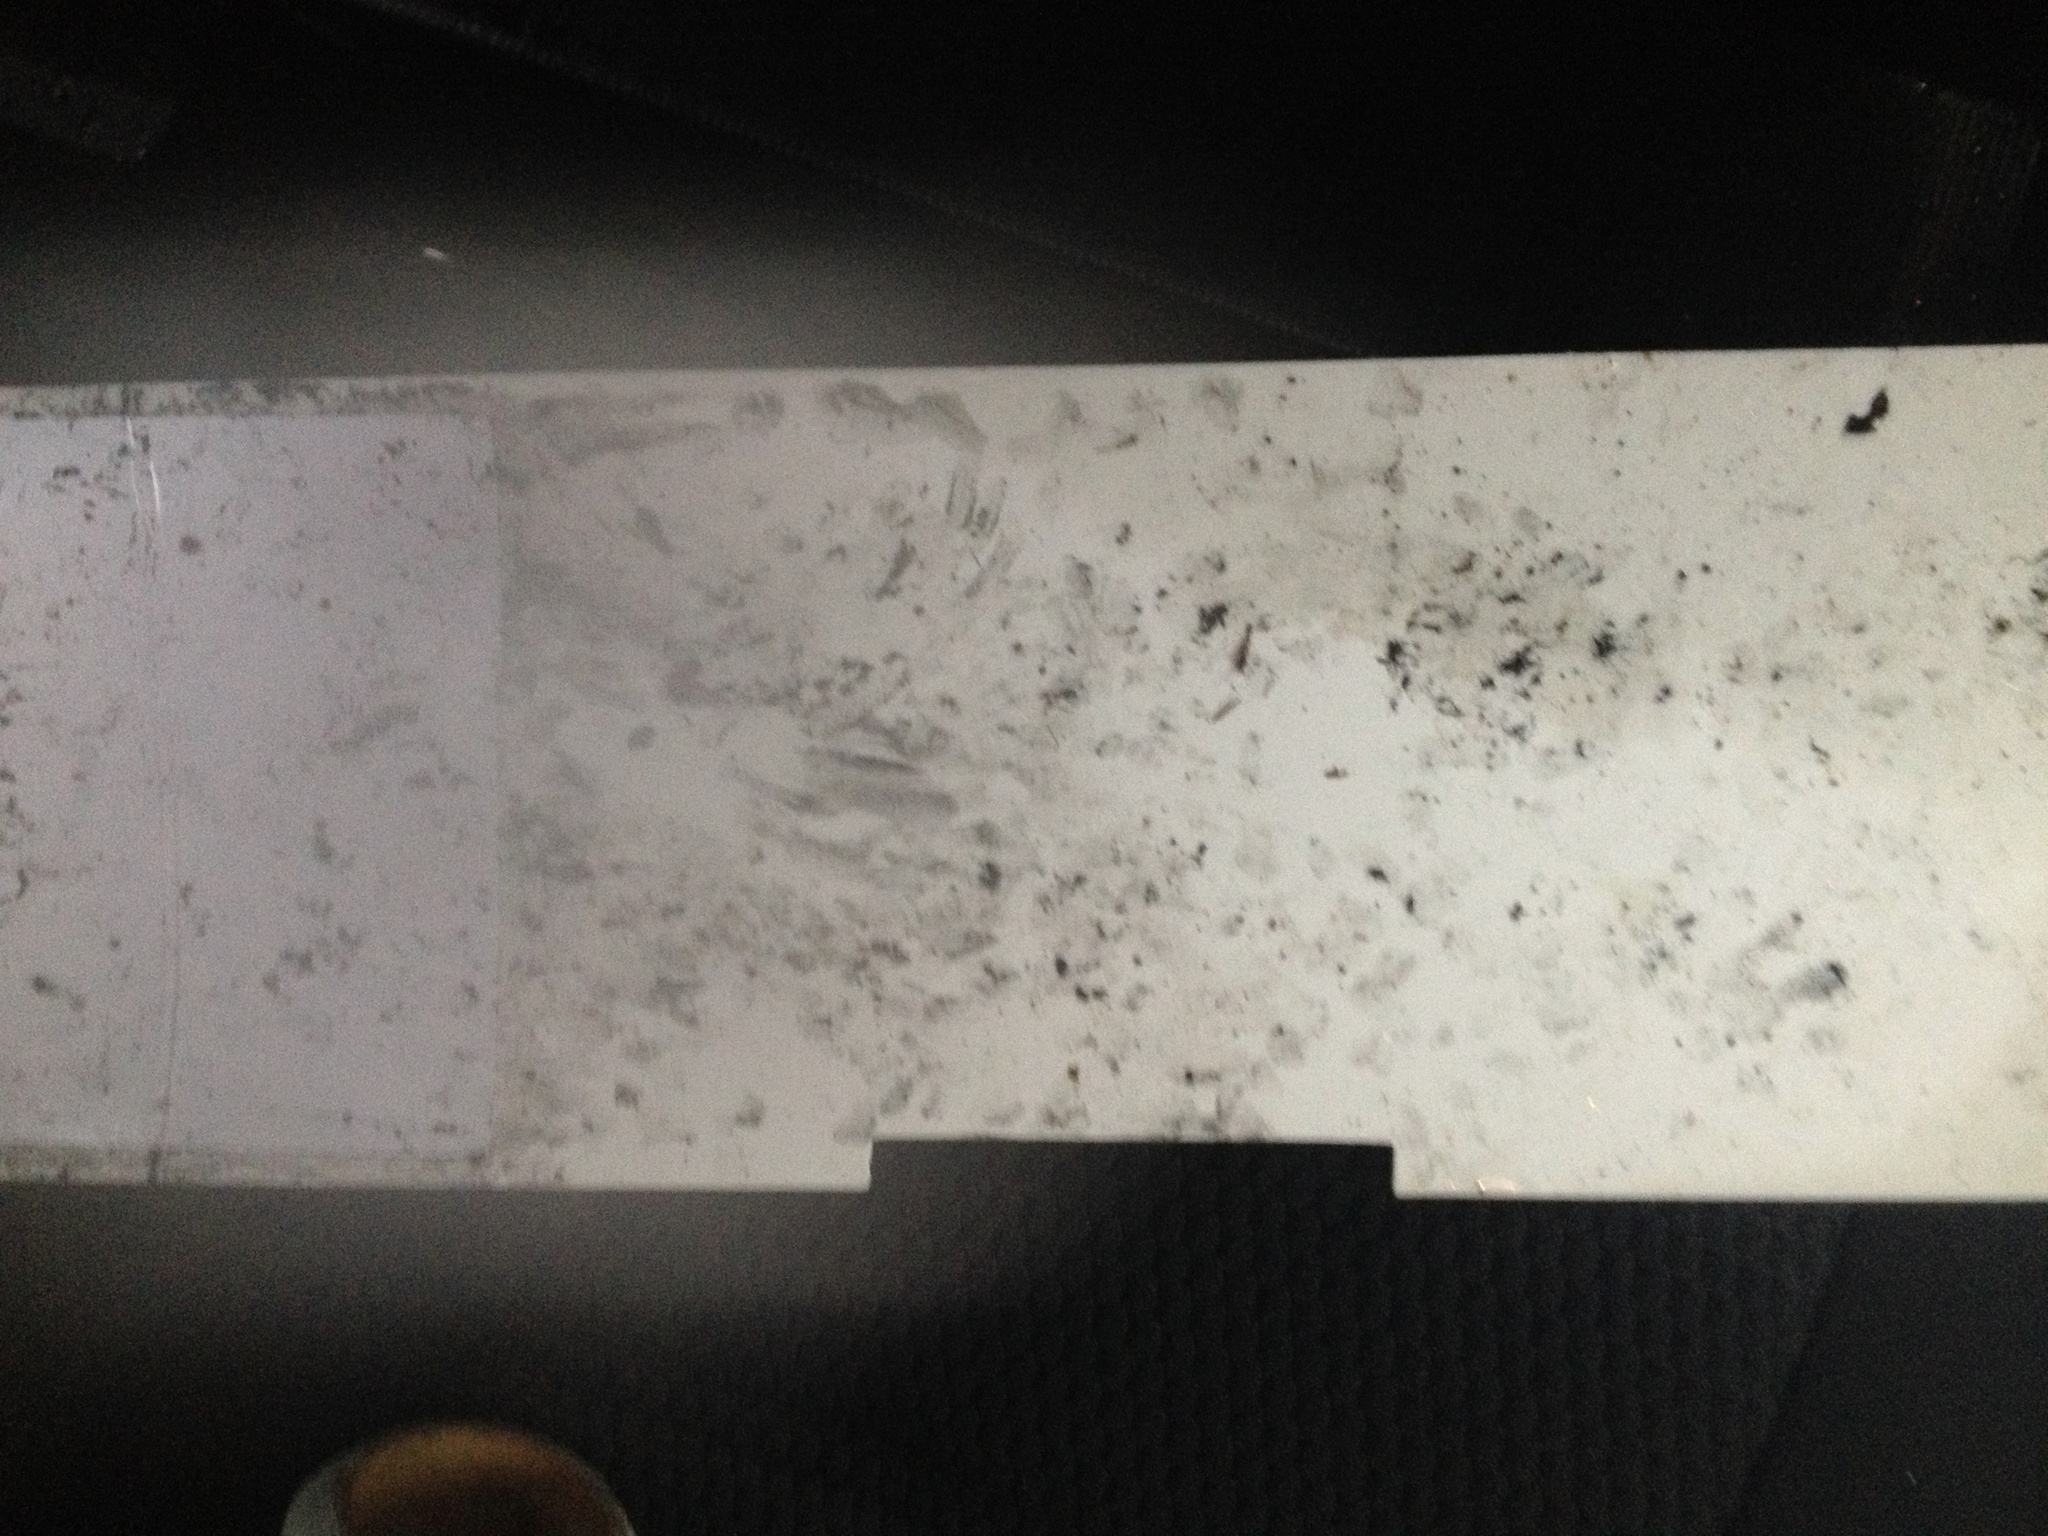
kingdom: Animalia
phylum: Chordata
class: Mammalia
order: Erinaceomorpha
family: Erinaceidae
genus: Erinaceus
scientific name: Erinaceus europaeus
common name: West european hedgehog
